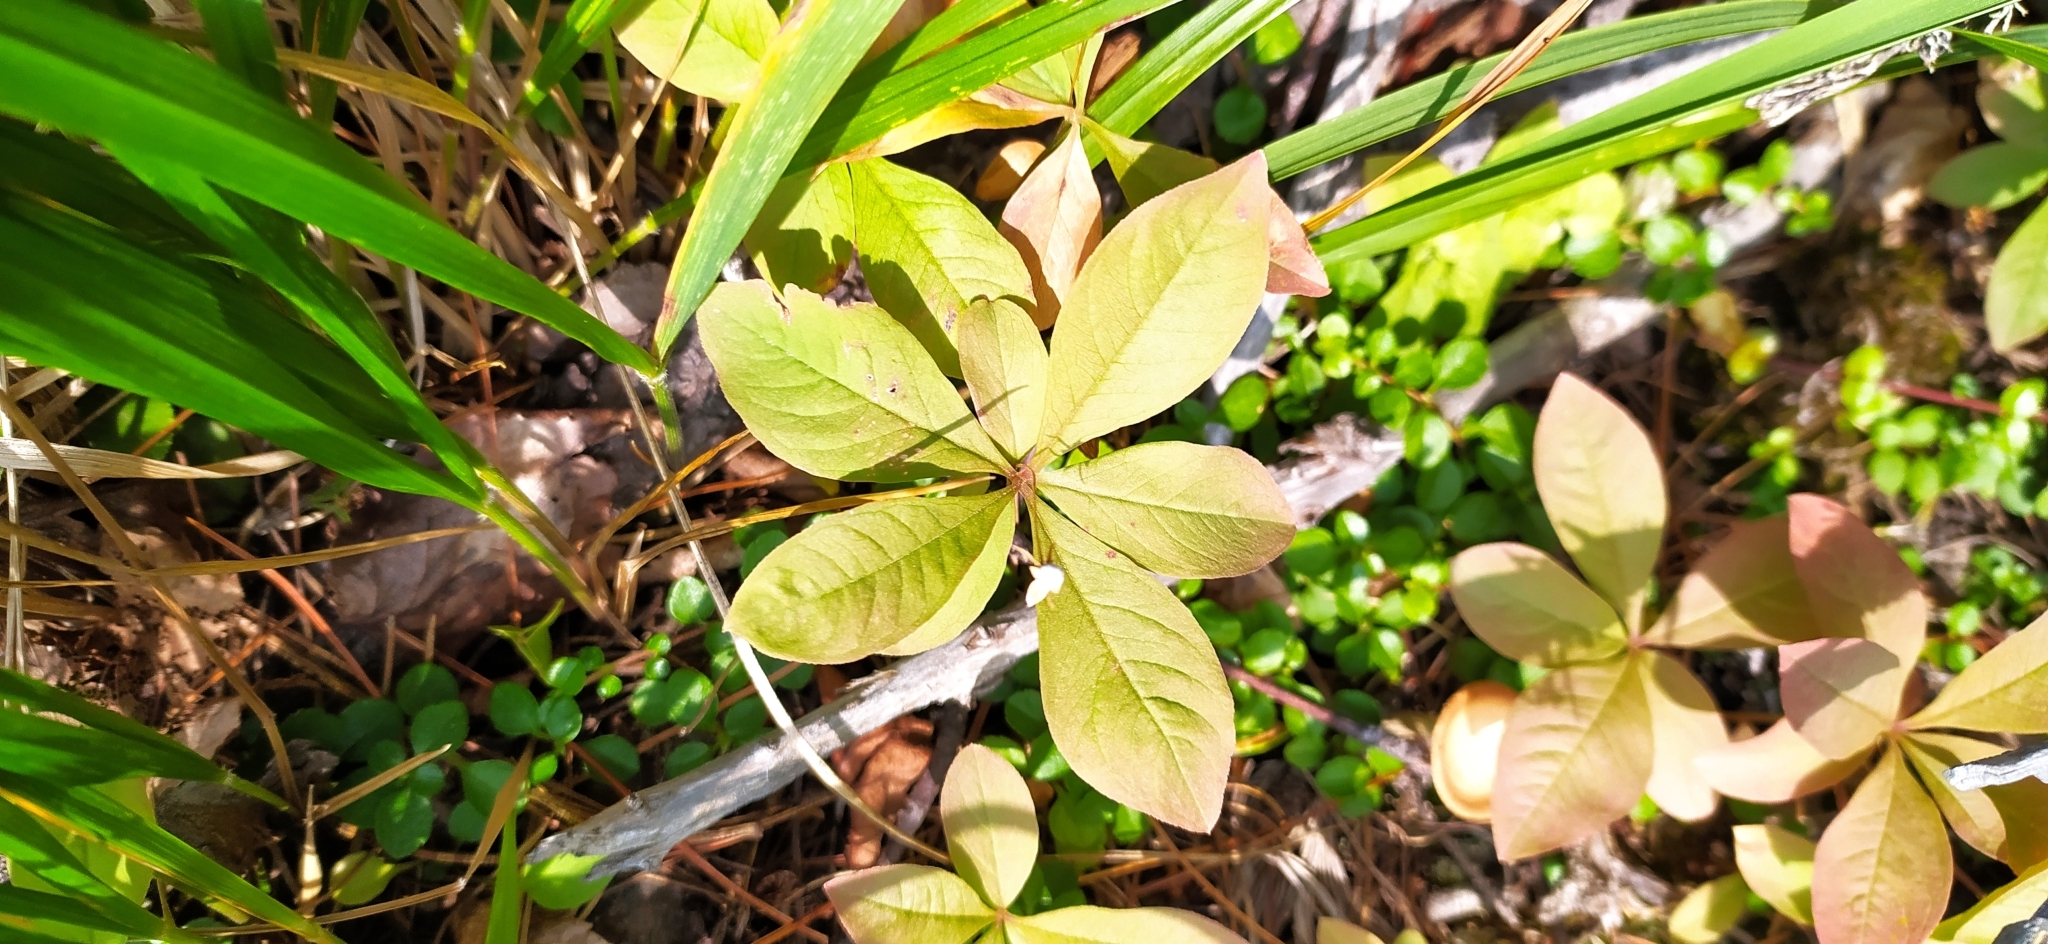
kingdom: Plantae
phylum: Tracheophyta
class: Magnoliopsida
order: Ericales
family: Primulaceae
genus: Lysimachia
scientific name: Lysimachia europaea
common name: Arctic starflower
